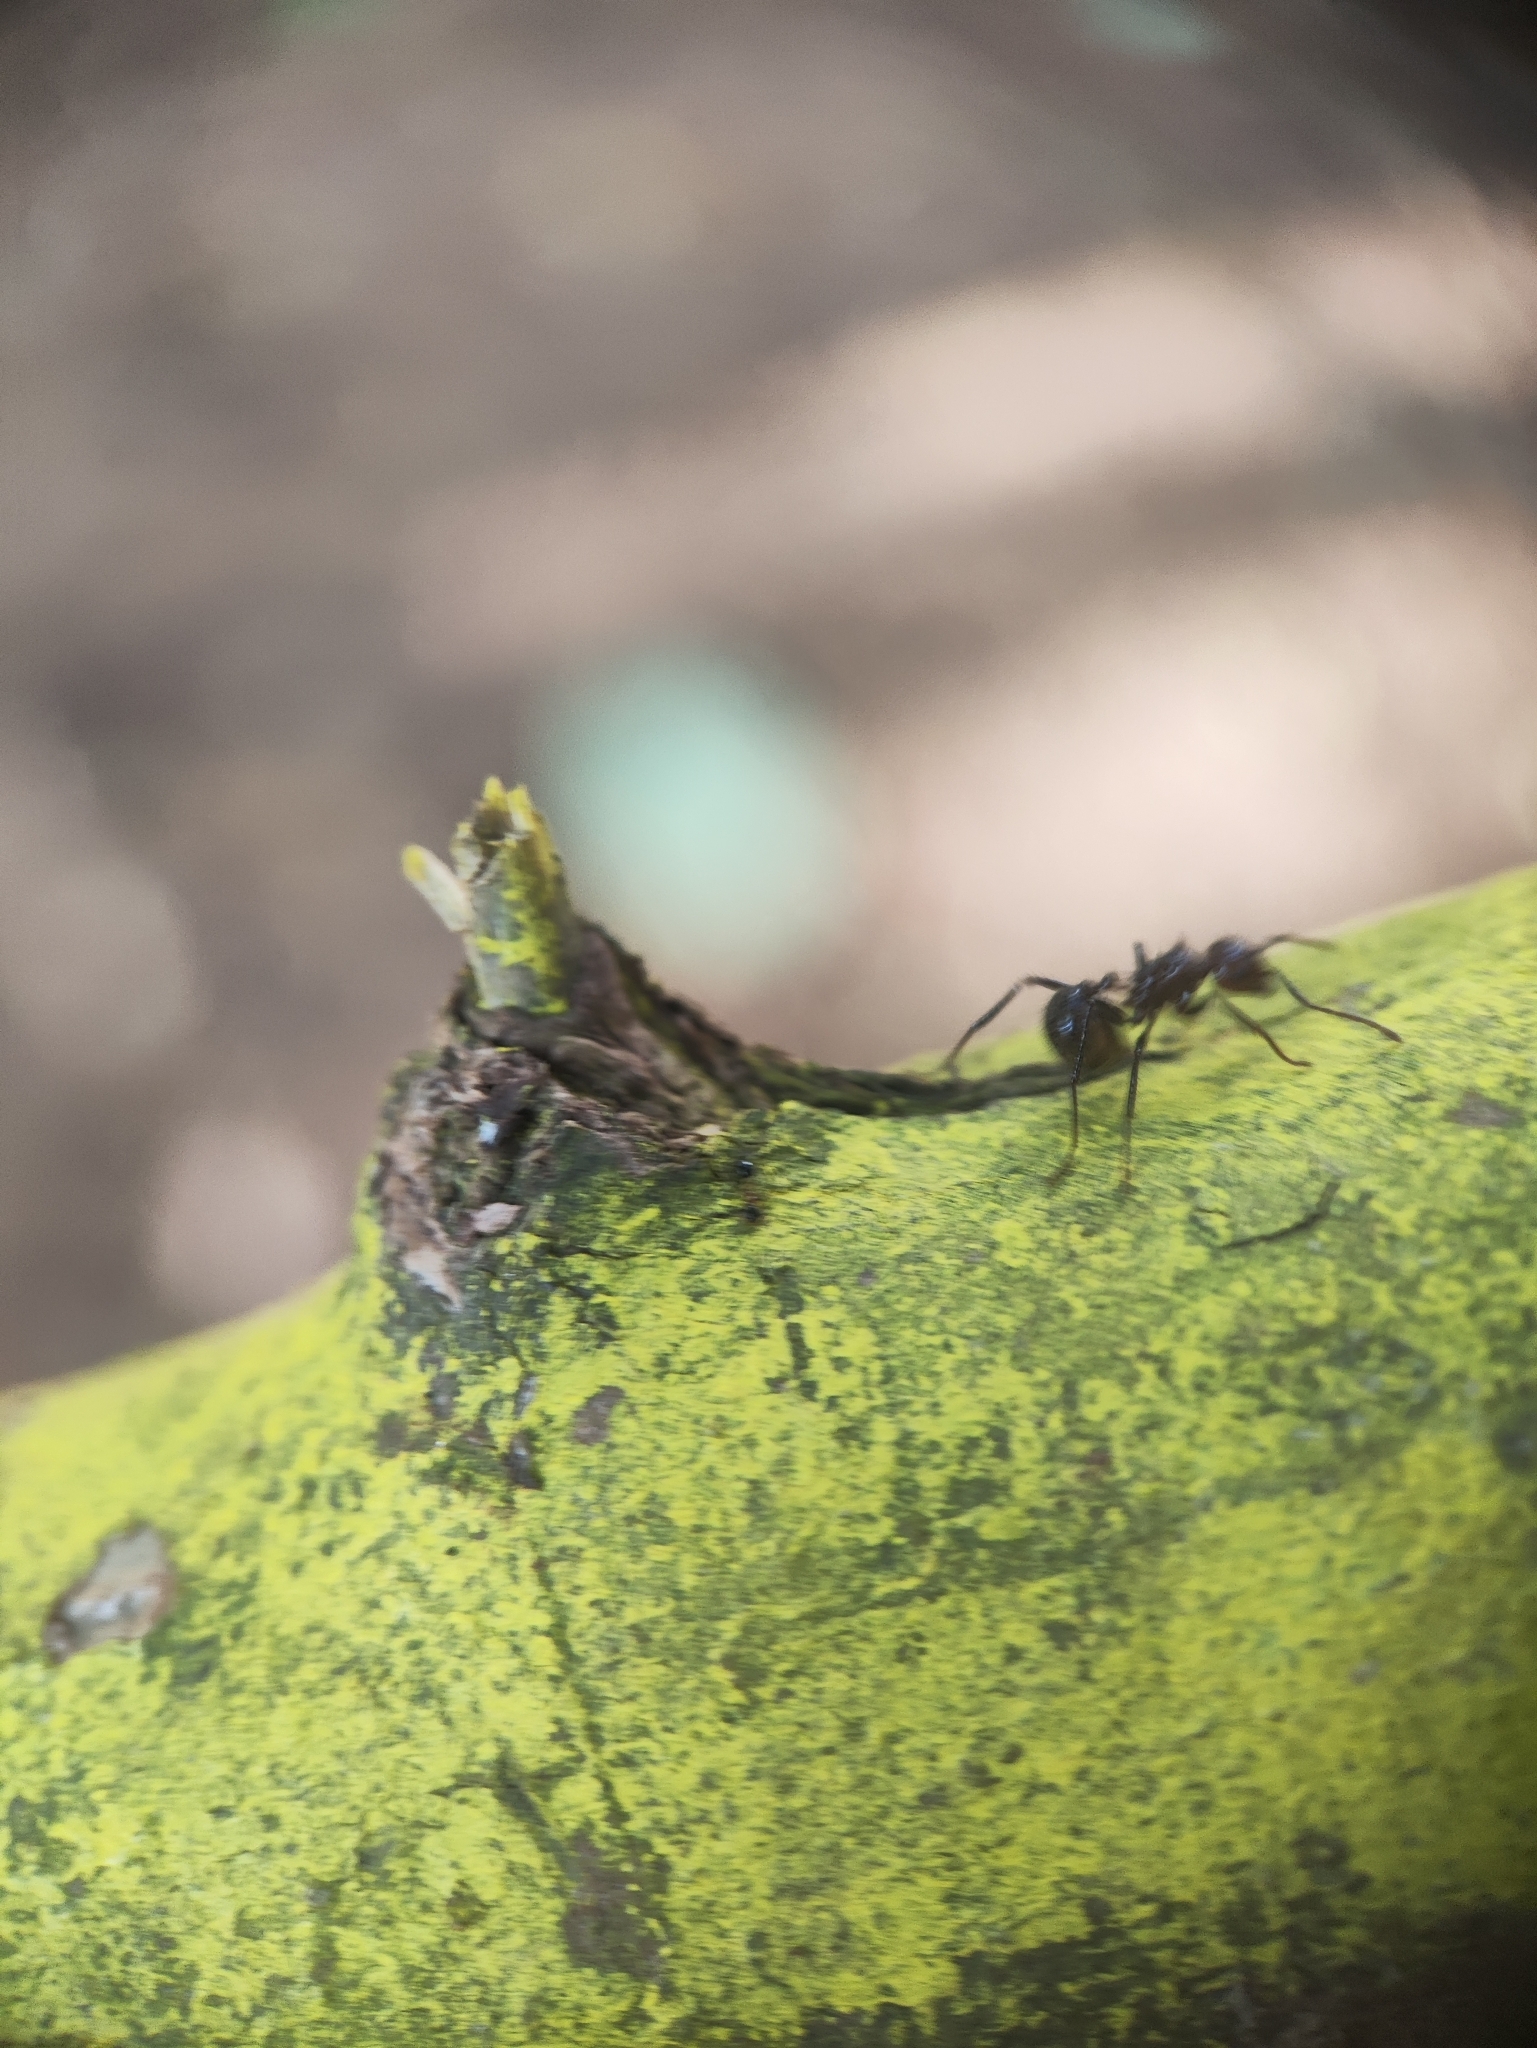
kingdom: Animalia
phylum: Arthropoda
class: Insecta
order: Hymenoptera
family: Formicidae
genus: Myrmicaria
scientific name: Myrmicaria brunnea
